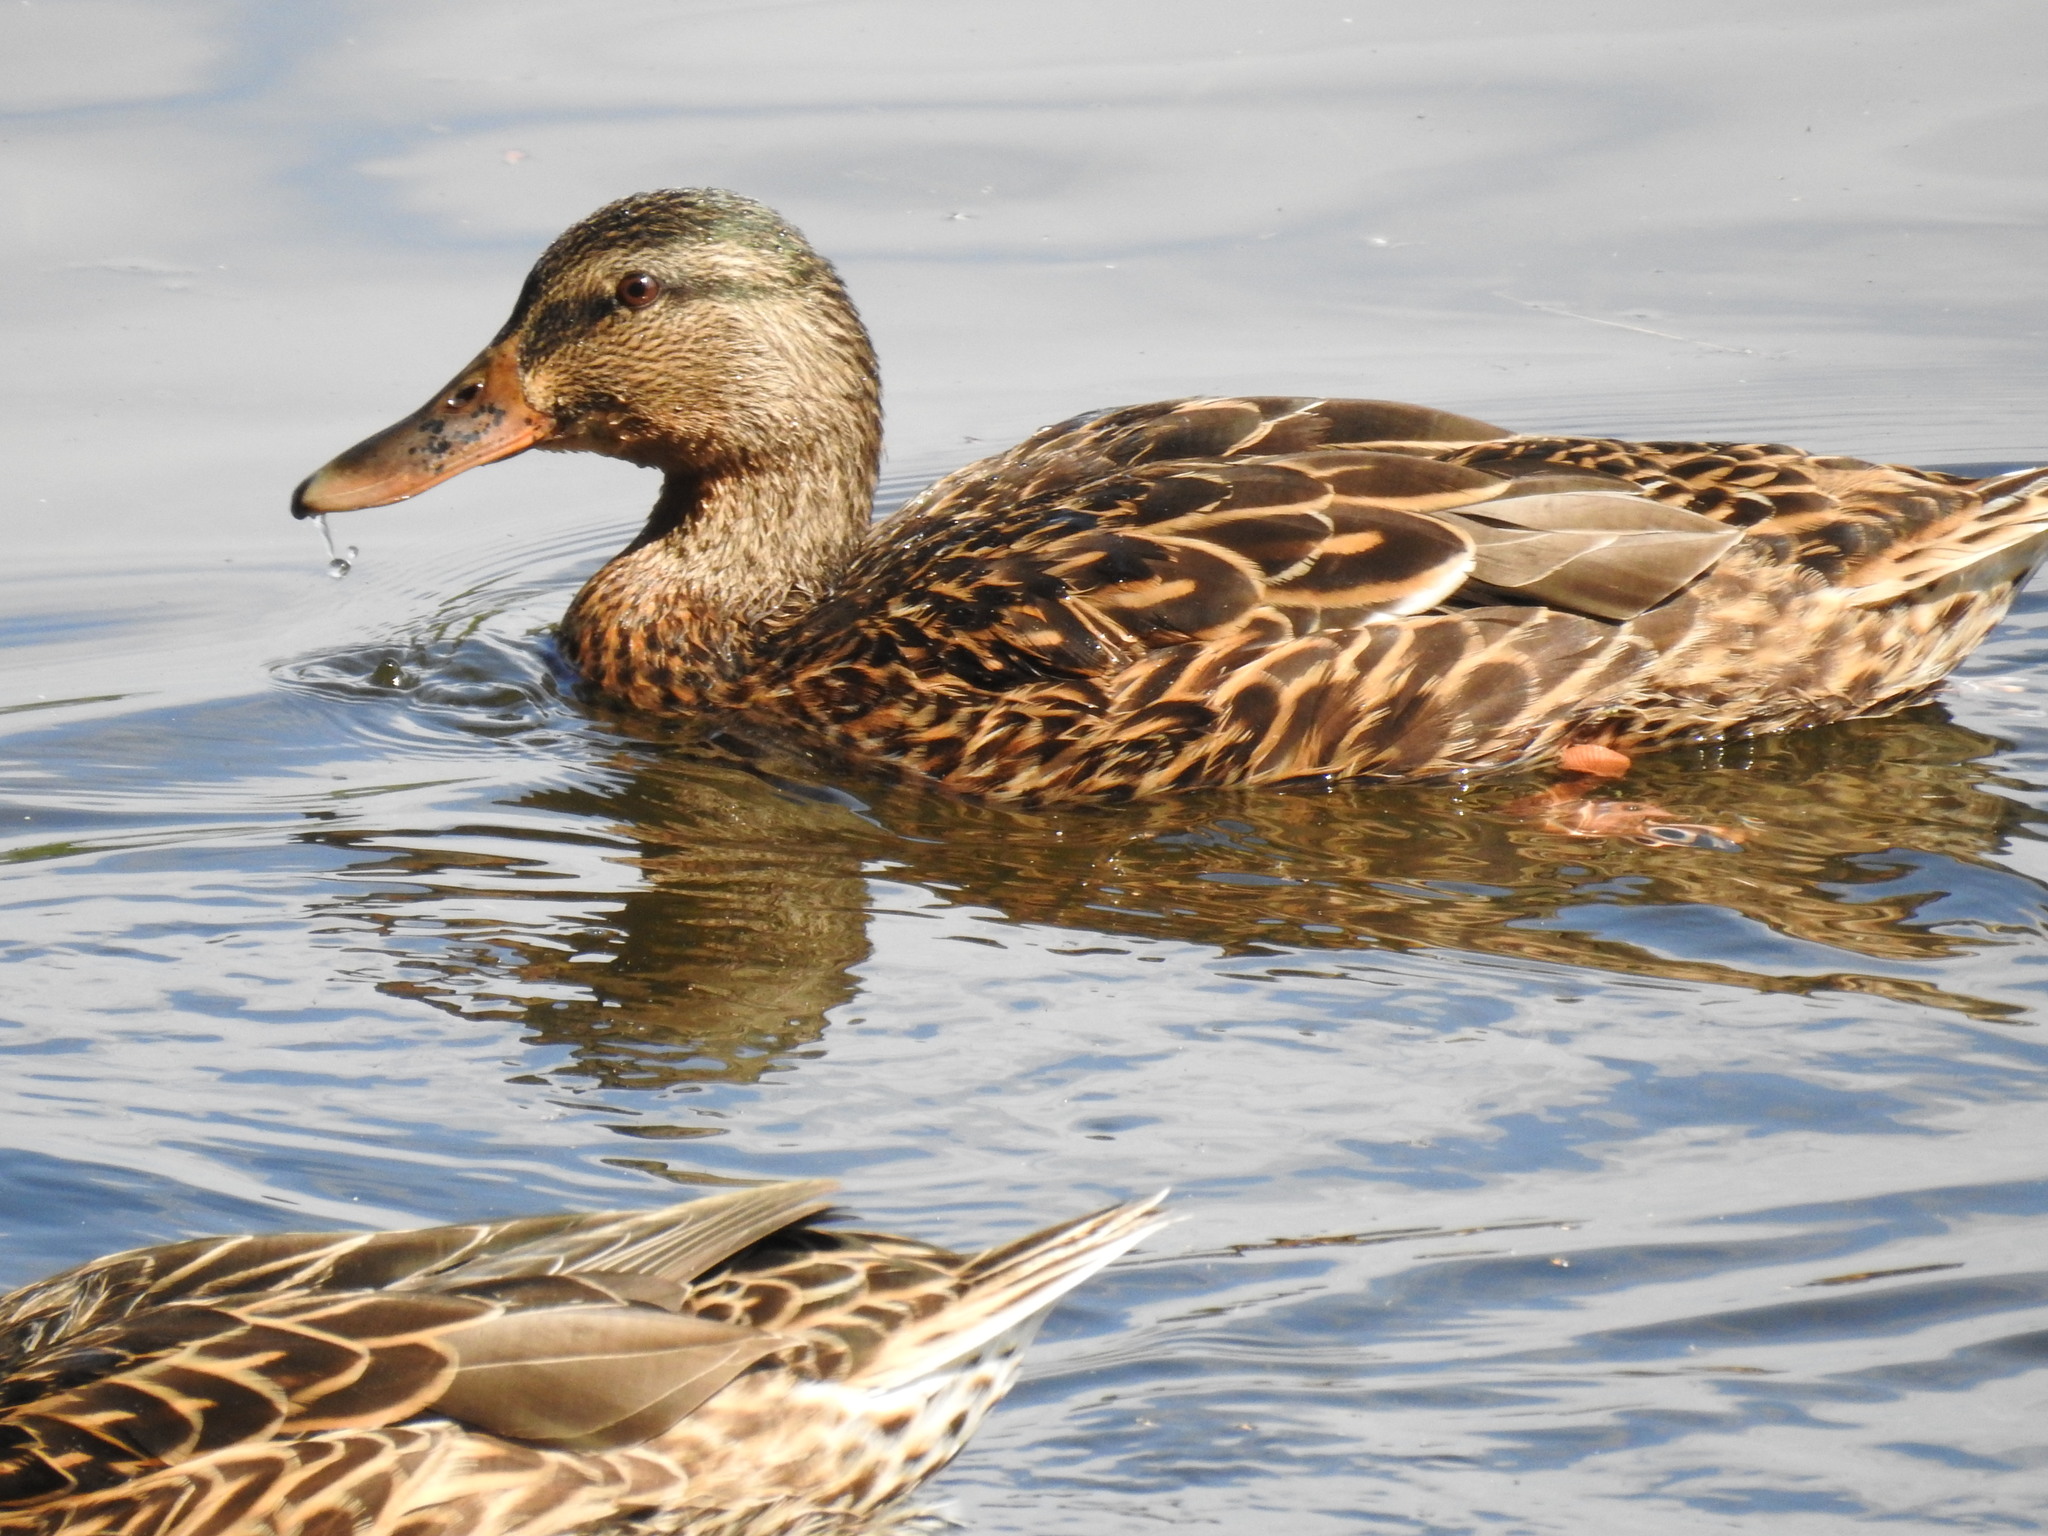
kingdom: Animalia
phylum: Chordata
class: Aves
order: Anseriformes
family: Anatidae
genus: Anas
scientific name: Anas platyrhynchos
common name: Mallard
